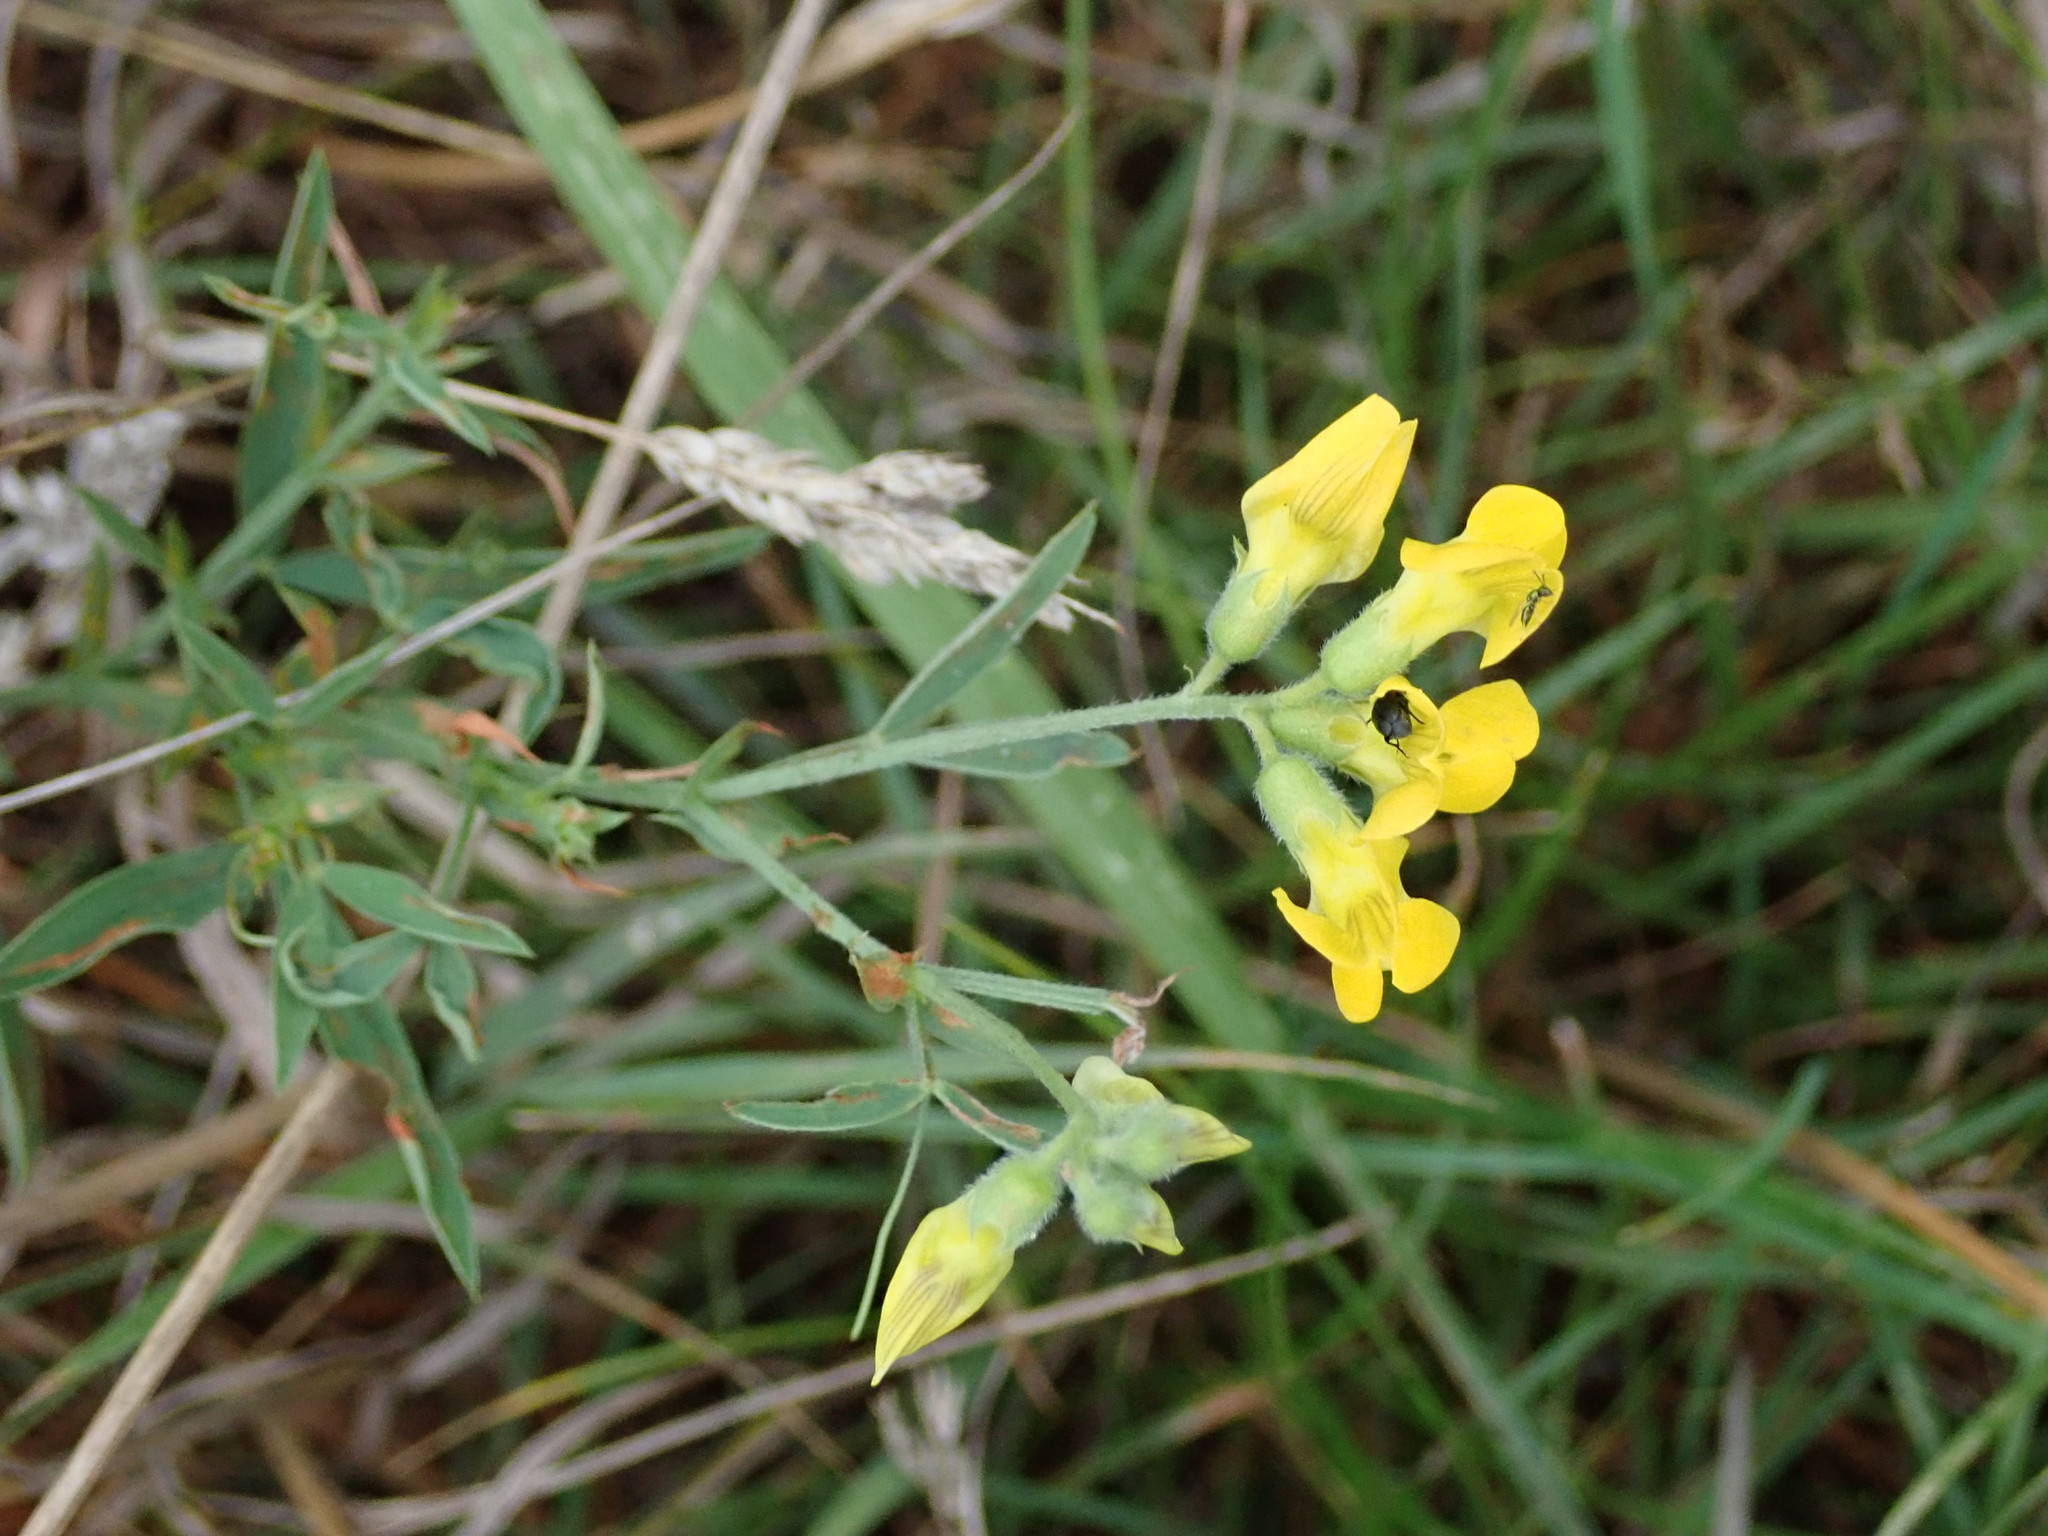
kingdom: Plantae
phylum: Tracheophyta
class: Magnoliopsida
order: Fabales
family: Fabaceae
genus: Lathyrus
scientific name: Lathyrus pratensis
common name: Meadow vetchling
